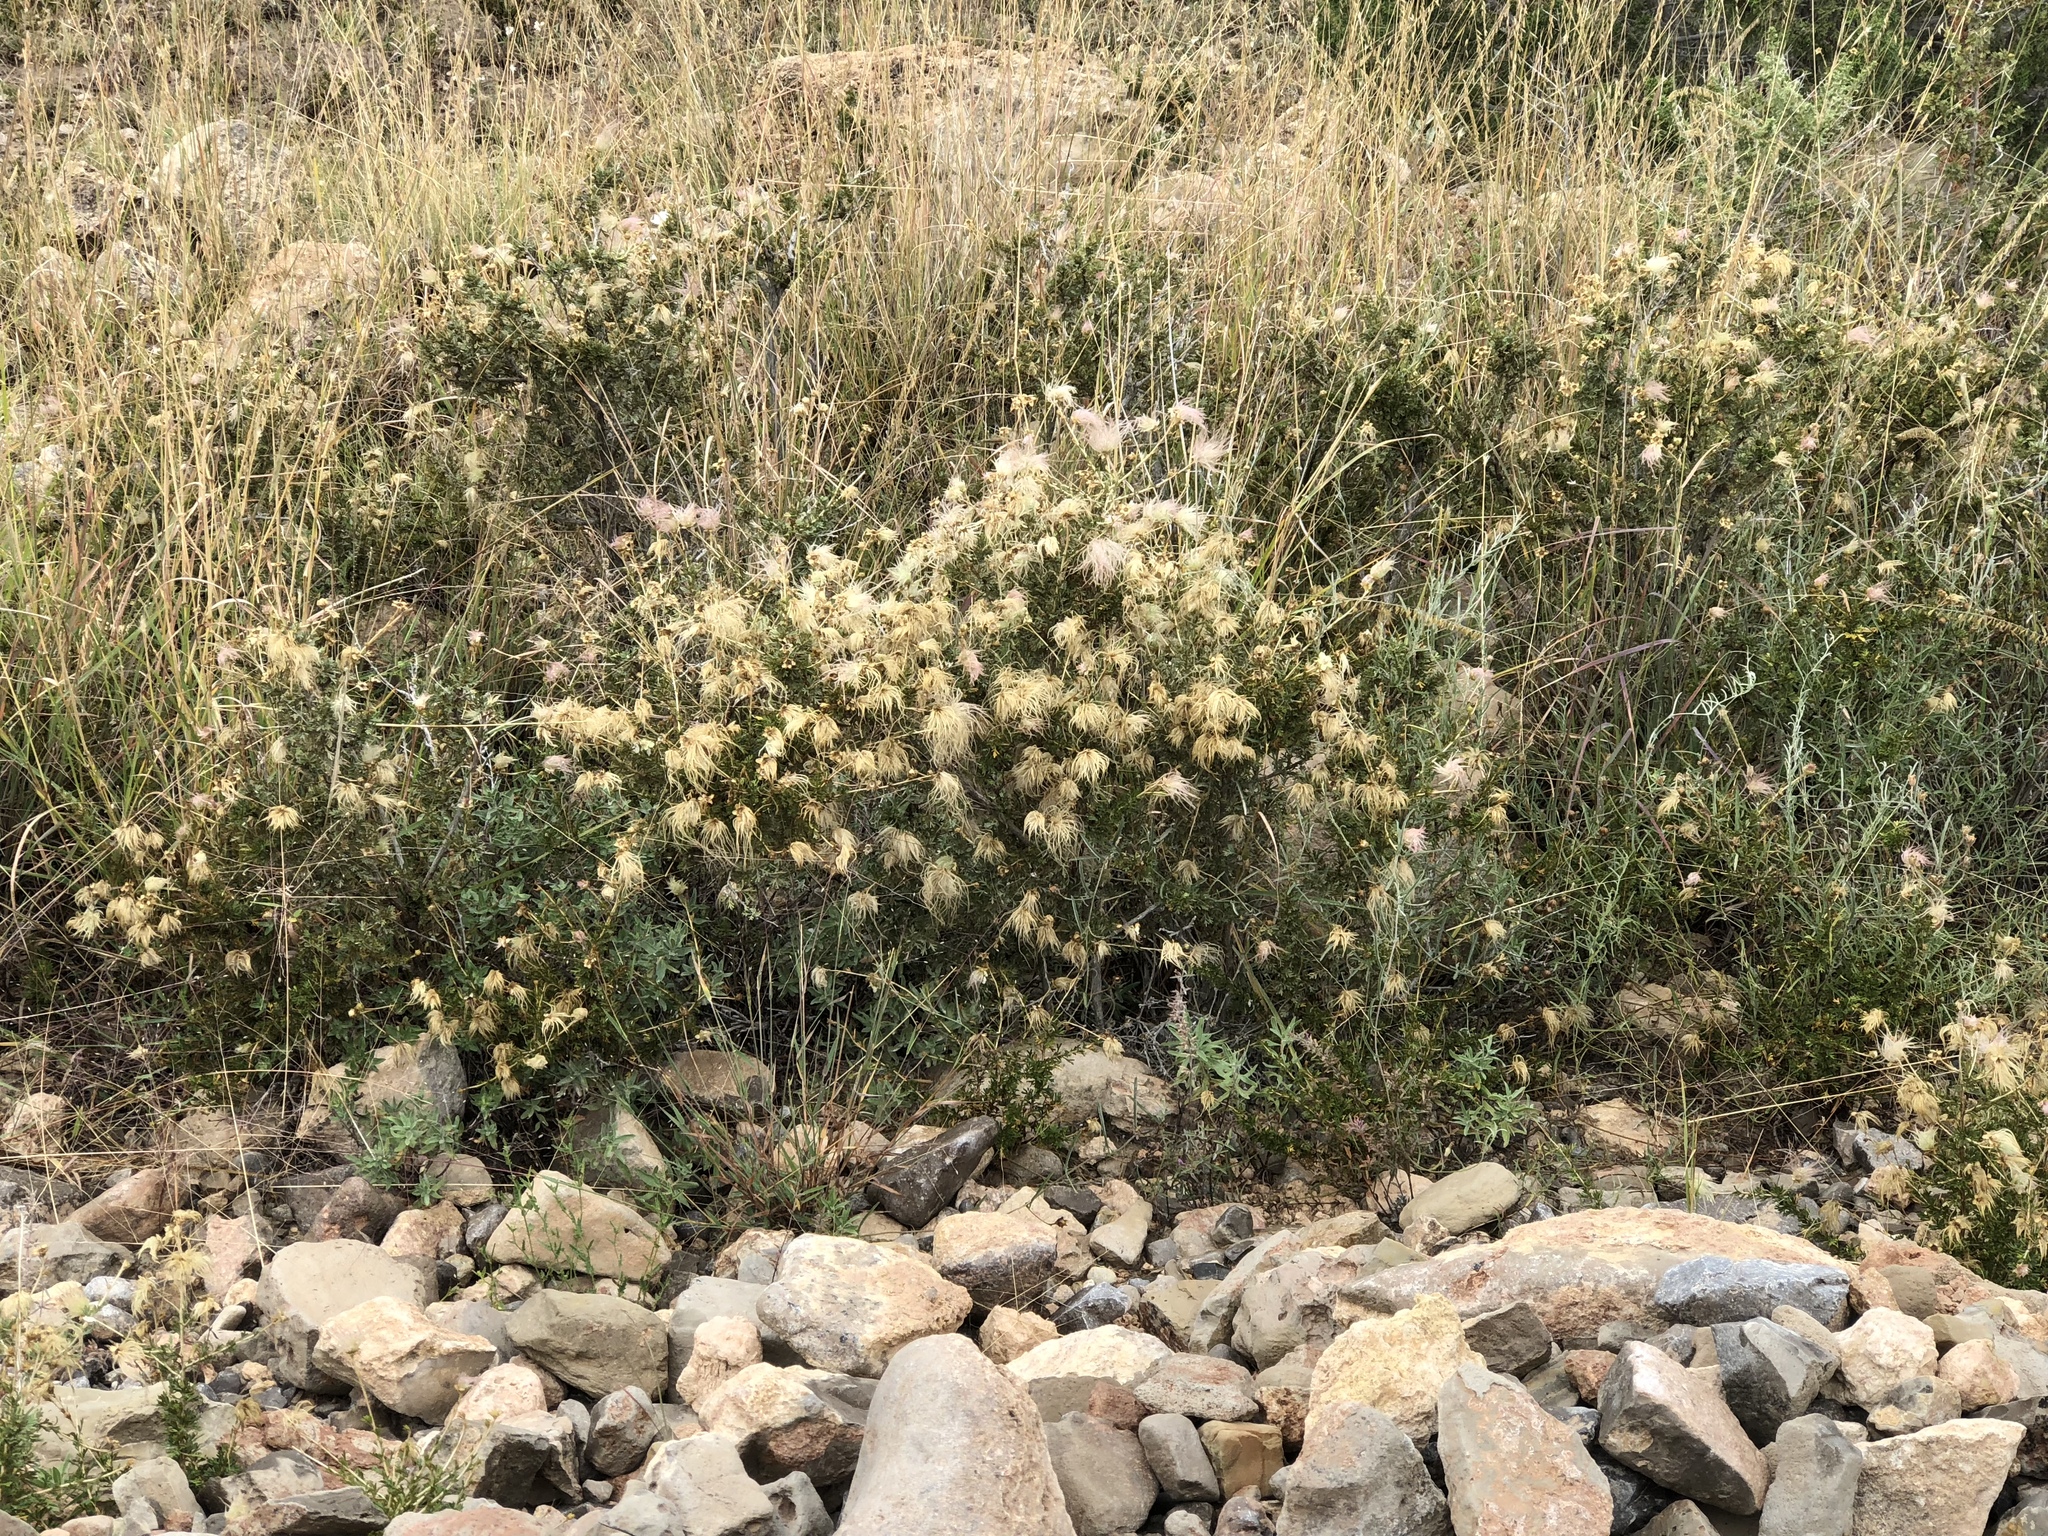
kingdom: Plantae
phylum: Tracheophyta
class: Magnoliopsida
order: Rosales
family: Rosaceae
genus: Fallugia
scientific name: Fallugia paradoxa
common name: Apache-plume
